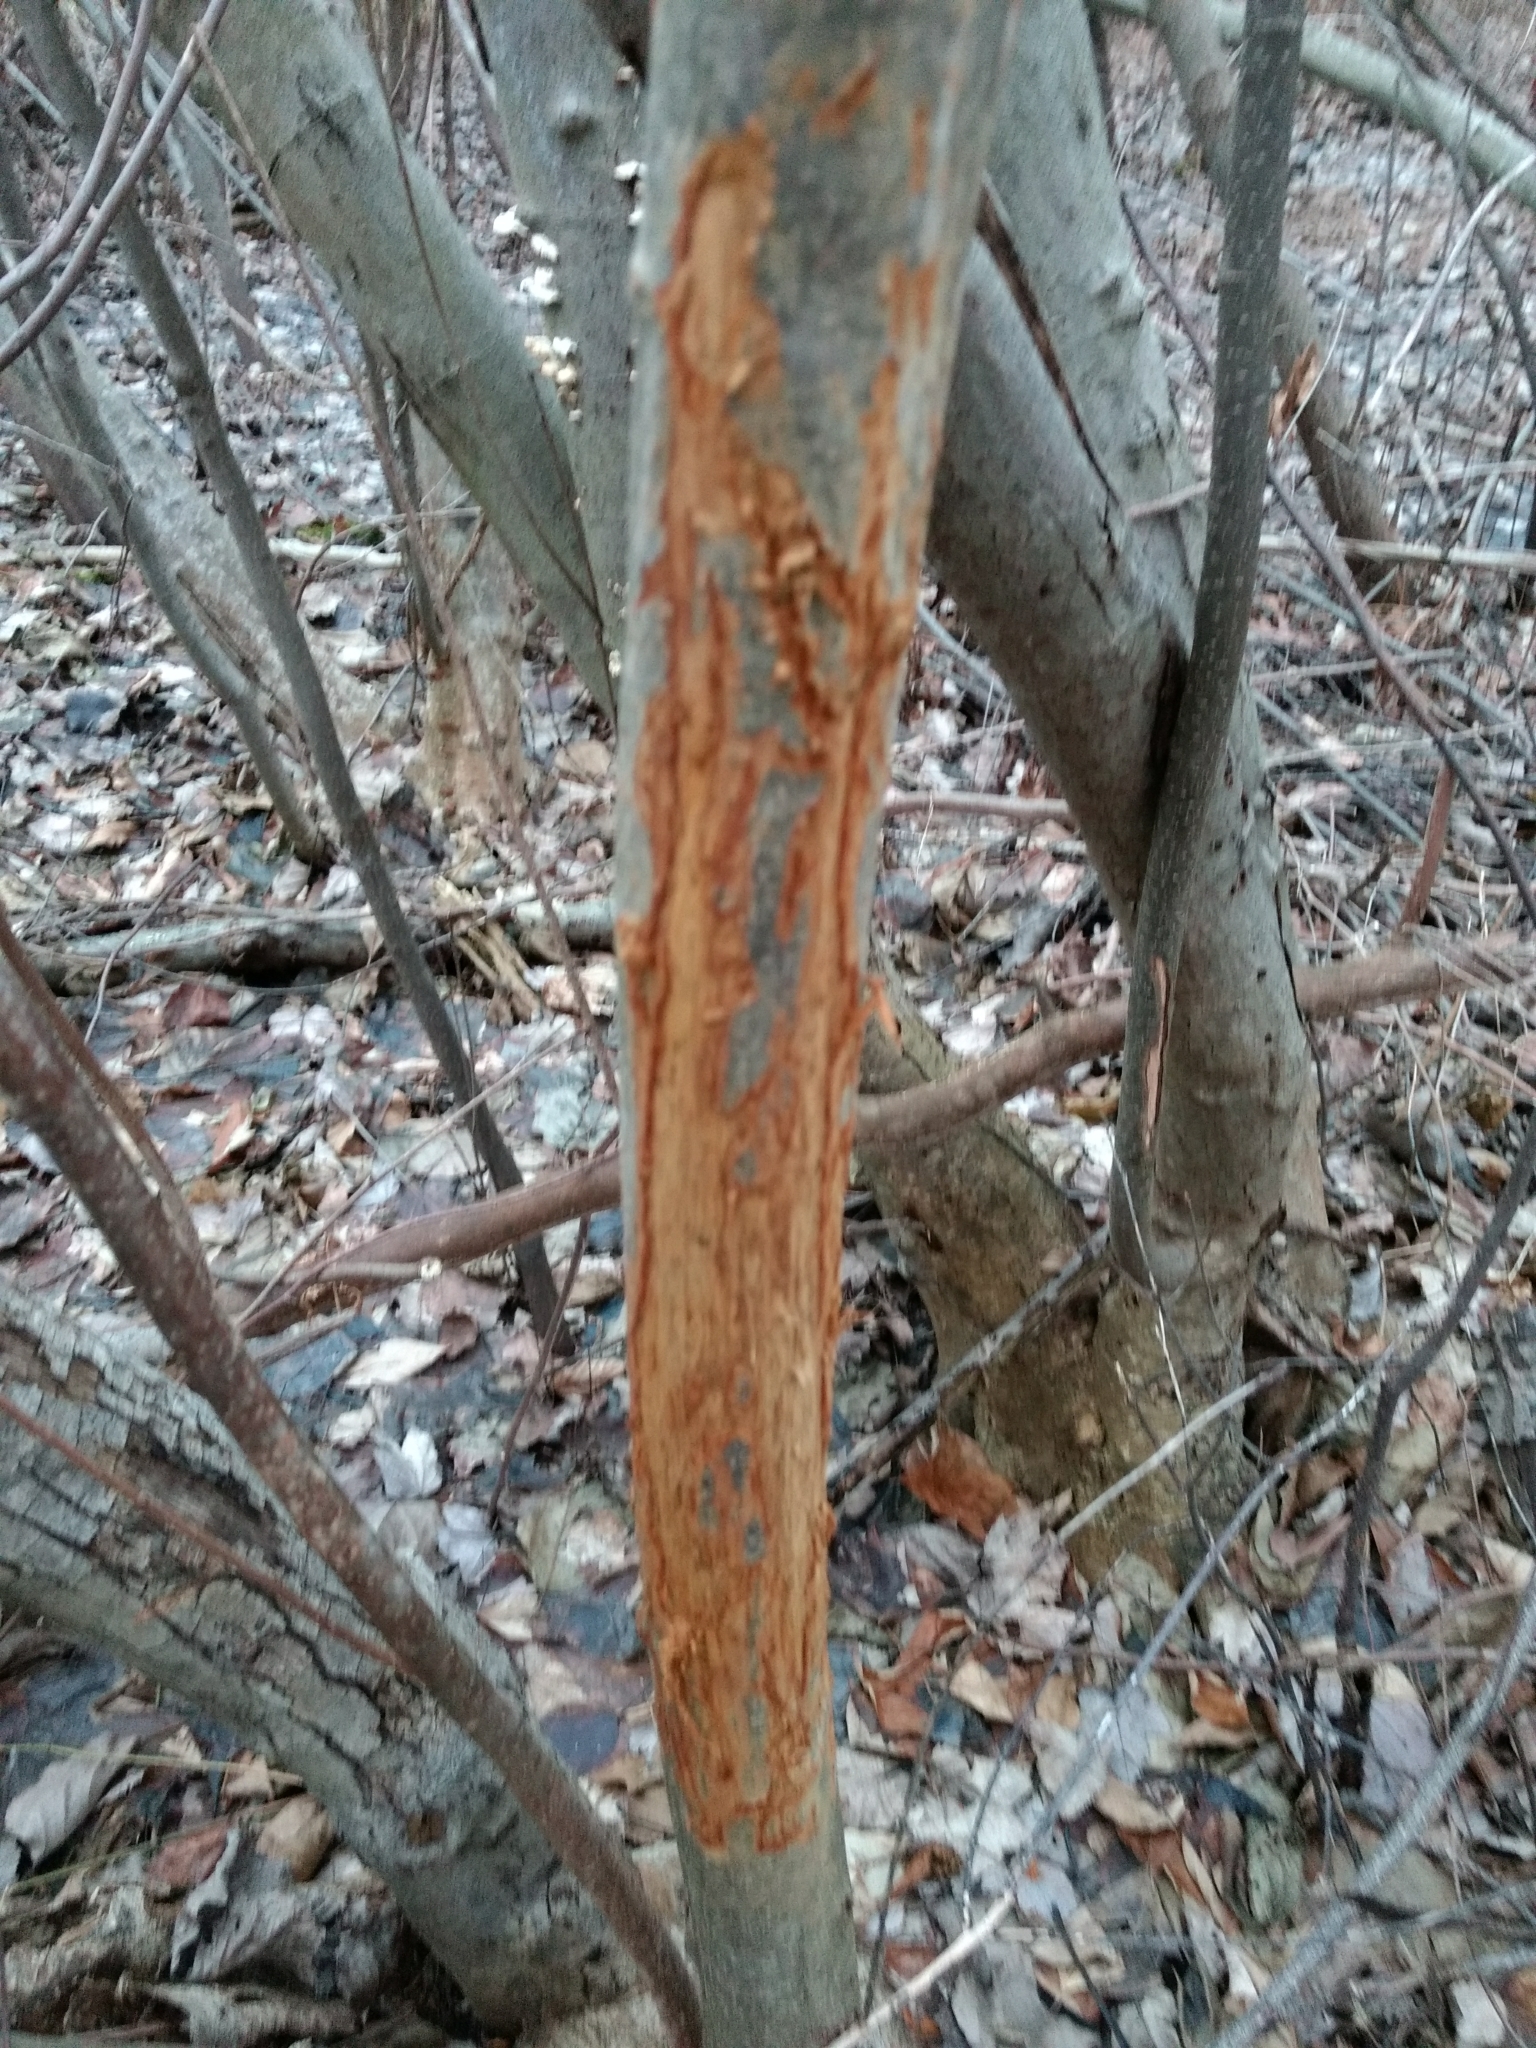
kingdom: Animalia
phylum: Chordata
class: Mammalia
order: Artiodactyla
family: Cervidae
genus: Odocoileus
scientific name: Odocoileus virginianus
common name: White-tailed deer
